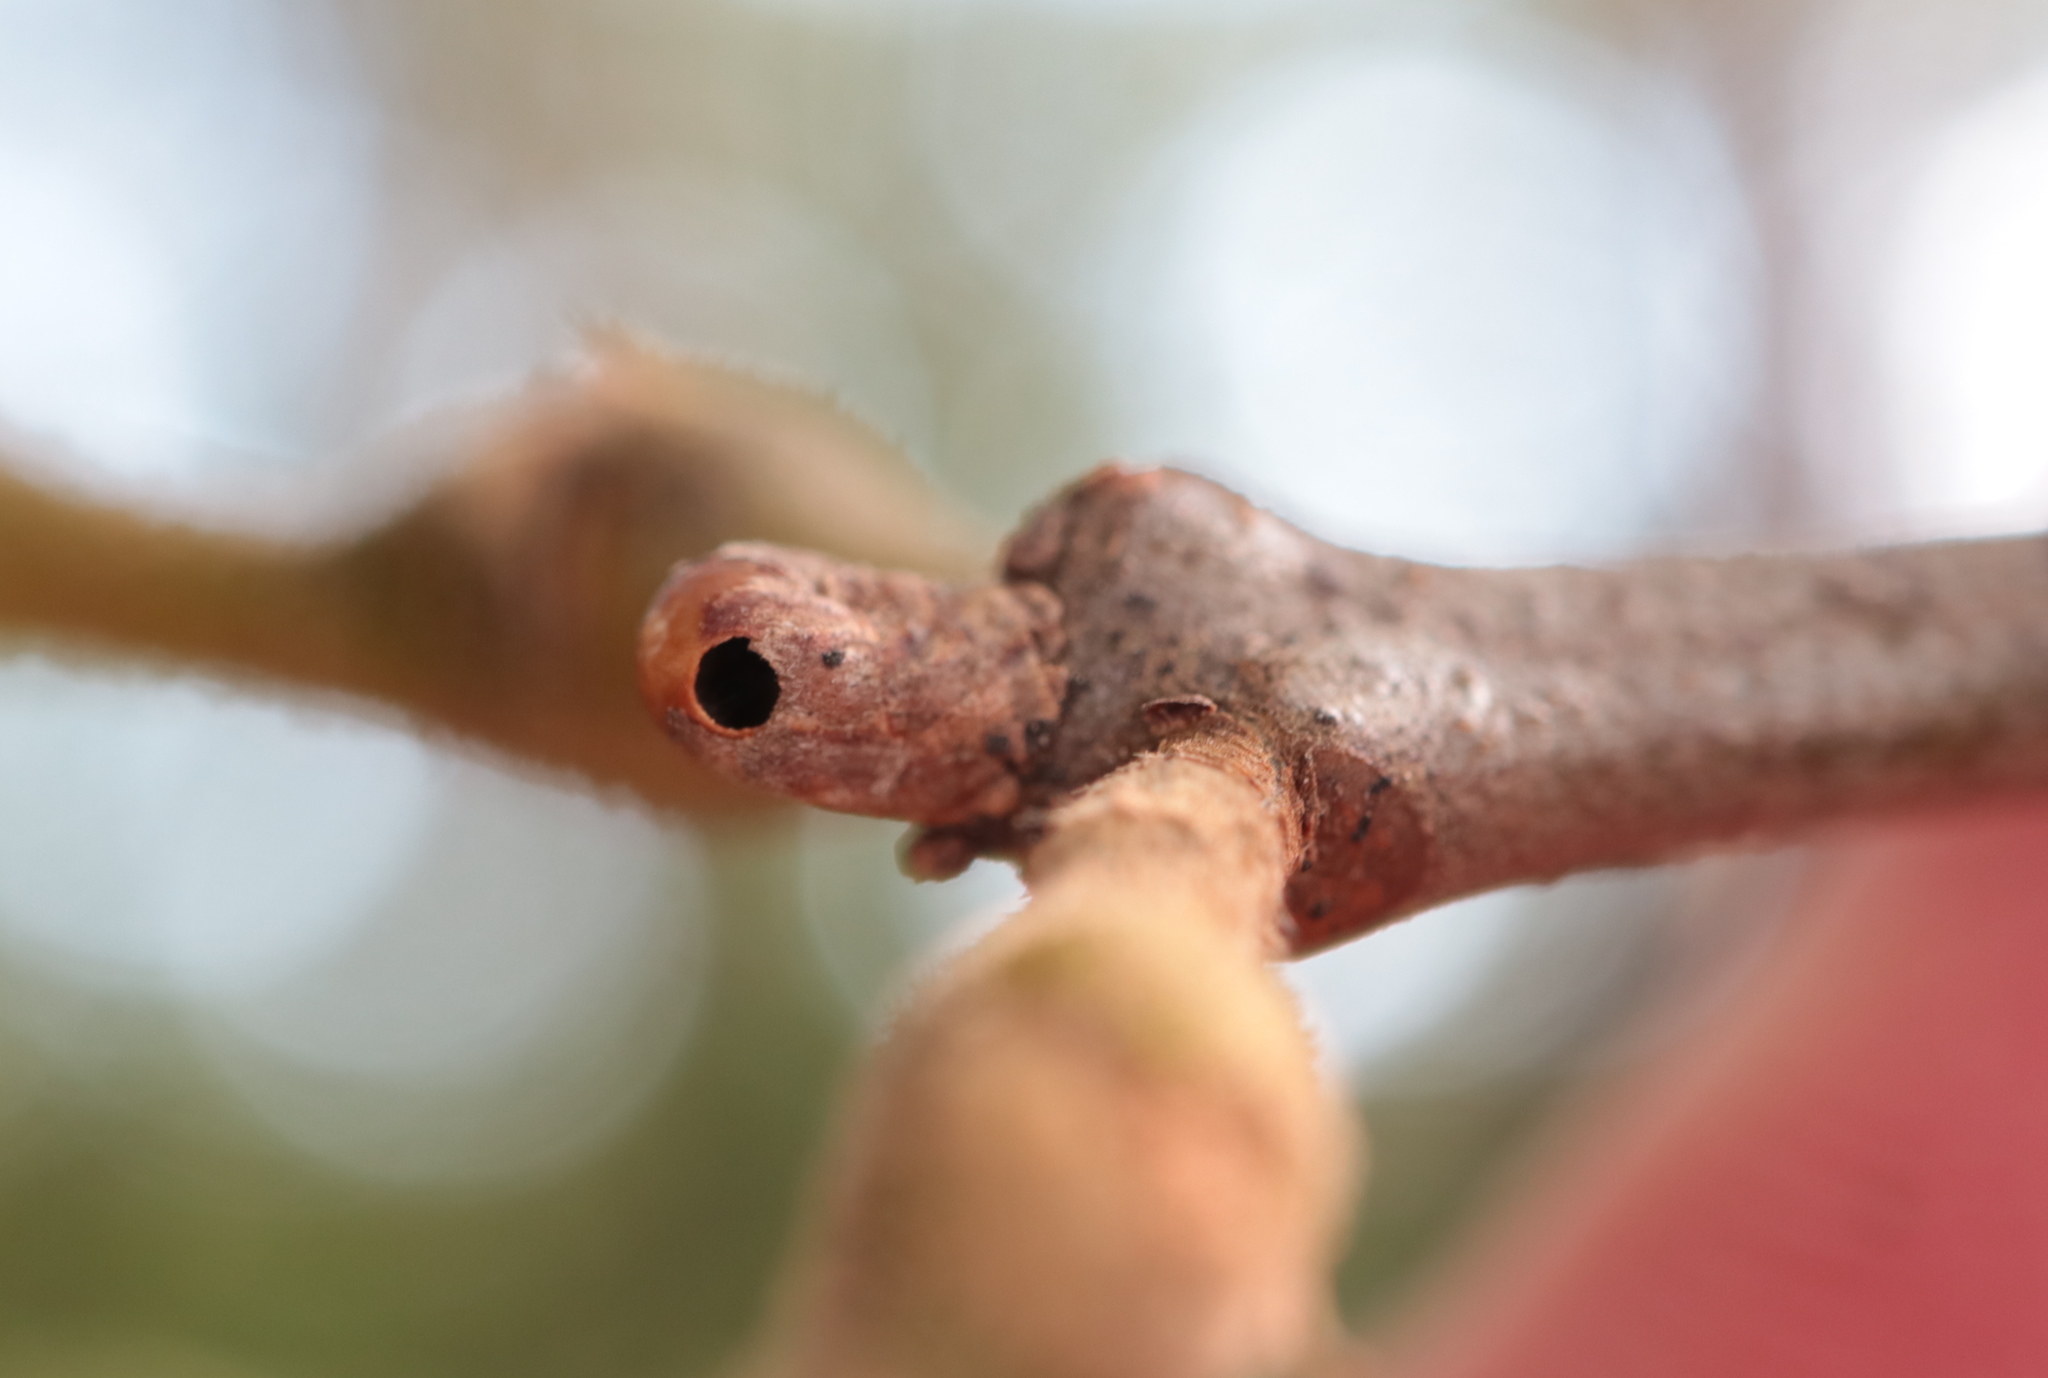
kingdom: Animalia
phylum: Arthropoda
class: Insecta
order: Hymenoptera
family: Cynipidae
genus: Callirhytis
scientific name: Callirhytis
